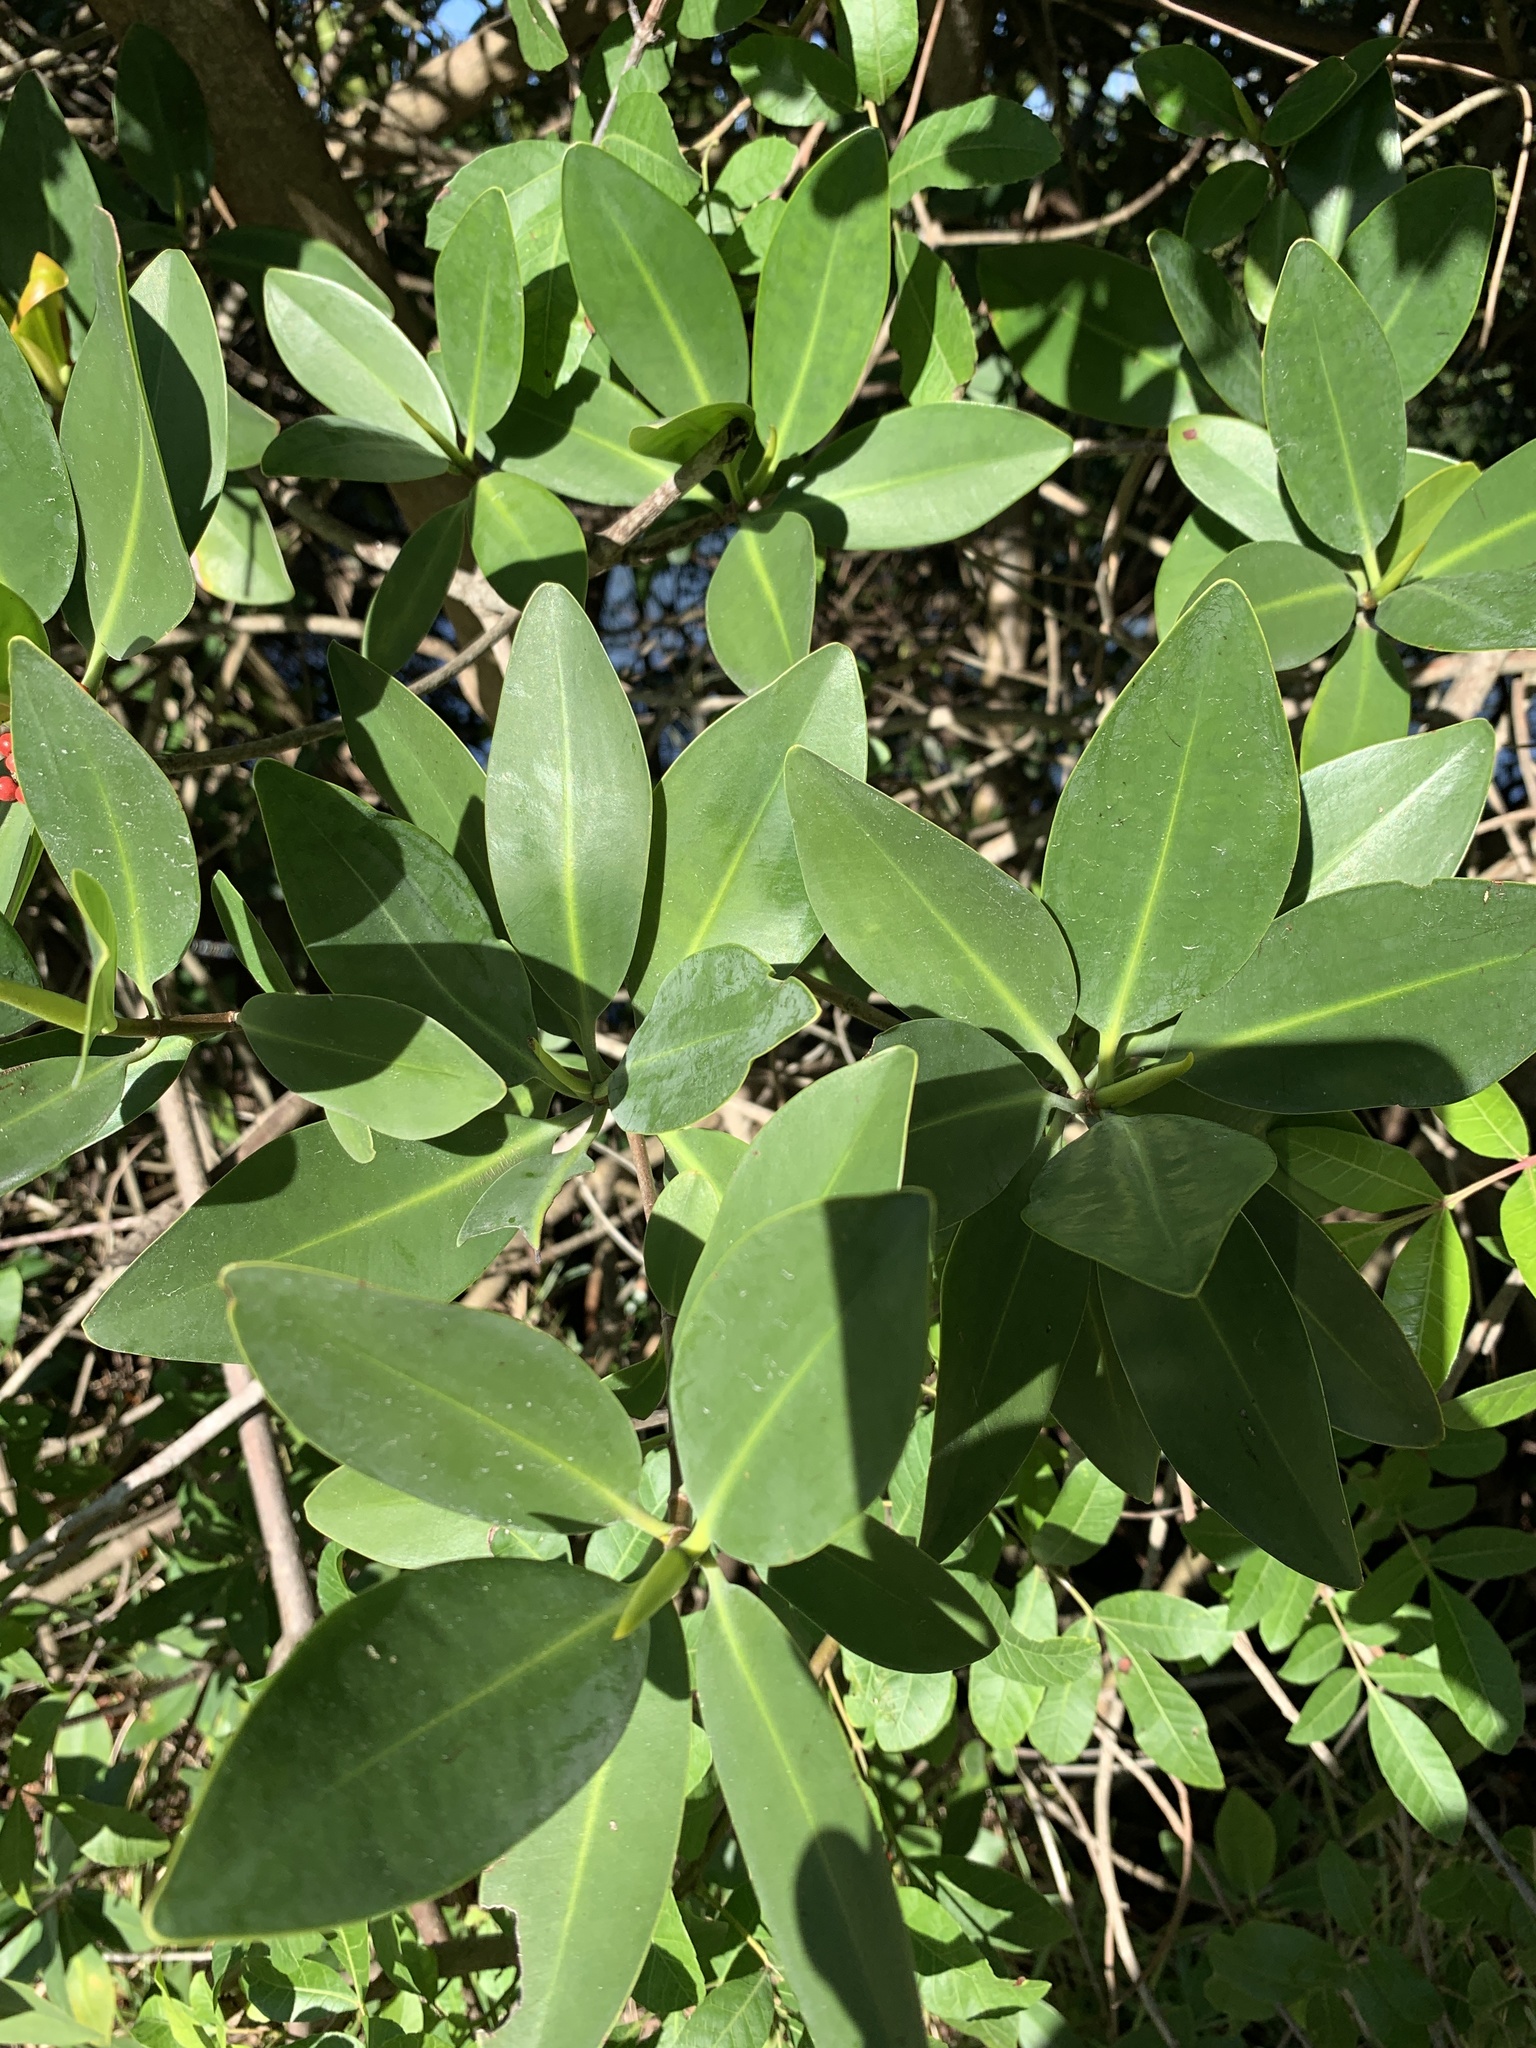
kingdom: Plantae
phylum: Tracheophyta
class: Magnoliopsida
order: Malpighiales
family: Rhizophoraceae
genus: Rhizophora
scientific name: Rhizophora mangle
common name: Red mangrove
